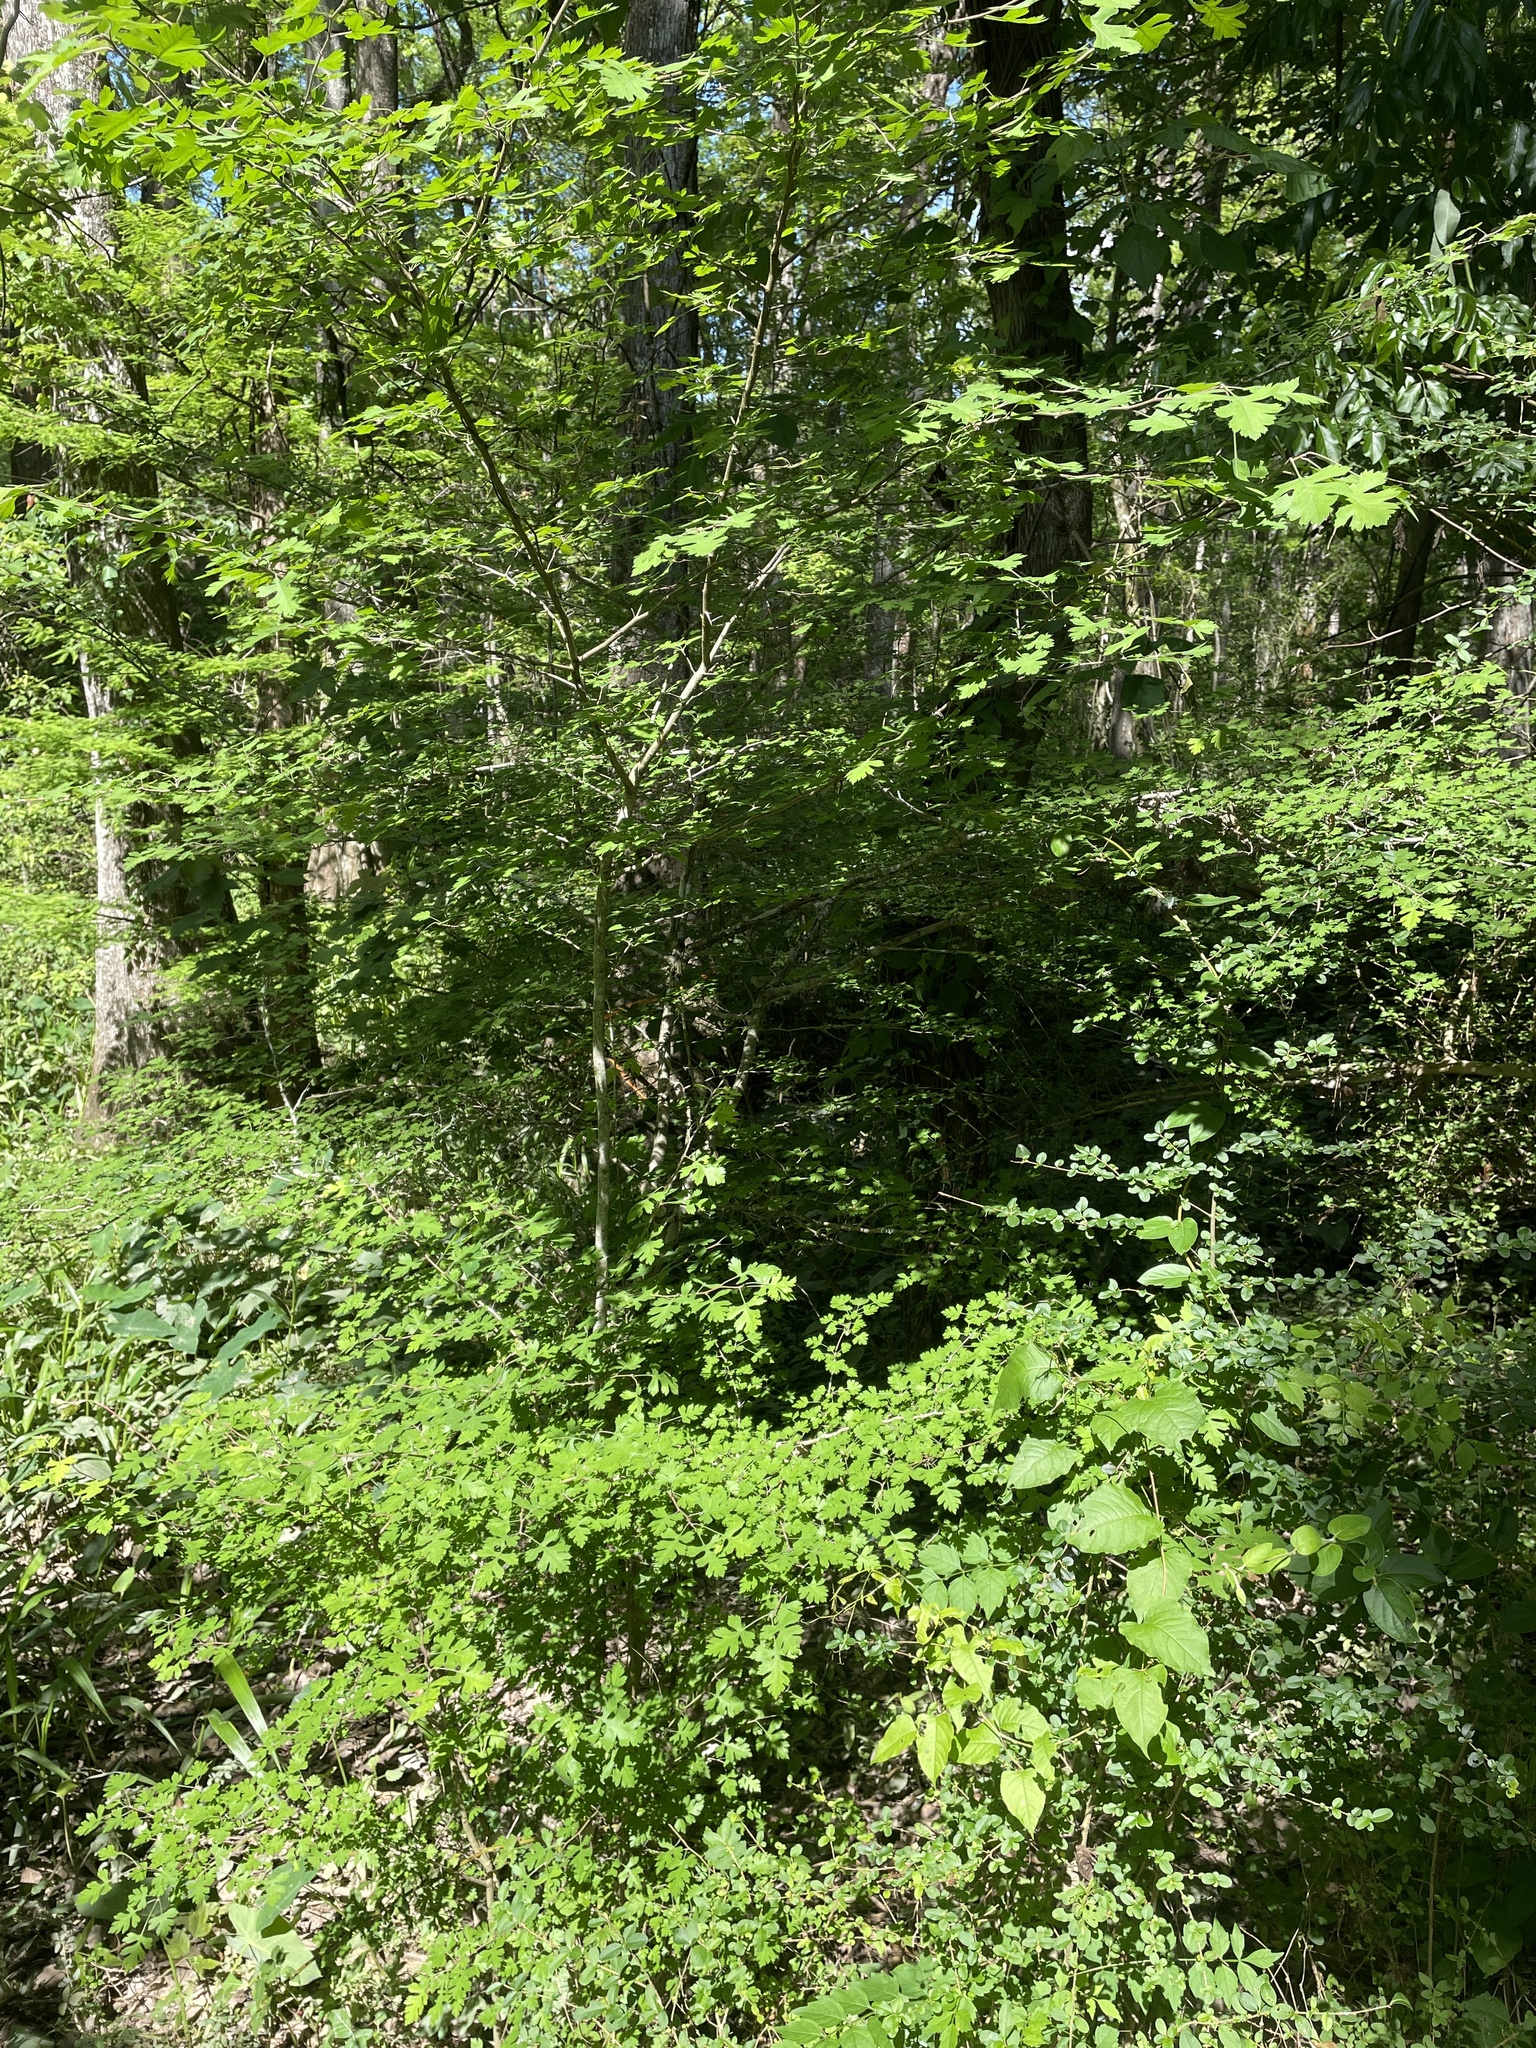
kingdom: Plantae
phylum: Tracheophyta
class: Magnoliopsida
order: Rosales
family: Rosaceae
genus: Crataegus
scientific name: Crataegus marshallii
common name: Parsley-hawthorn
